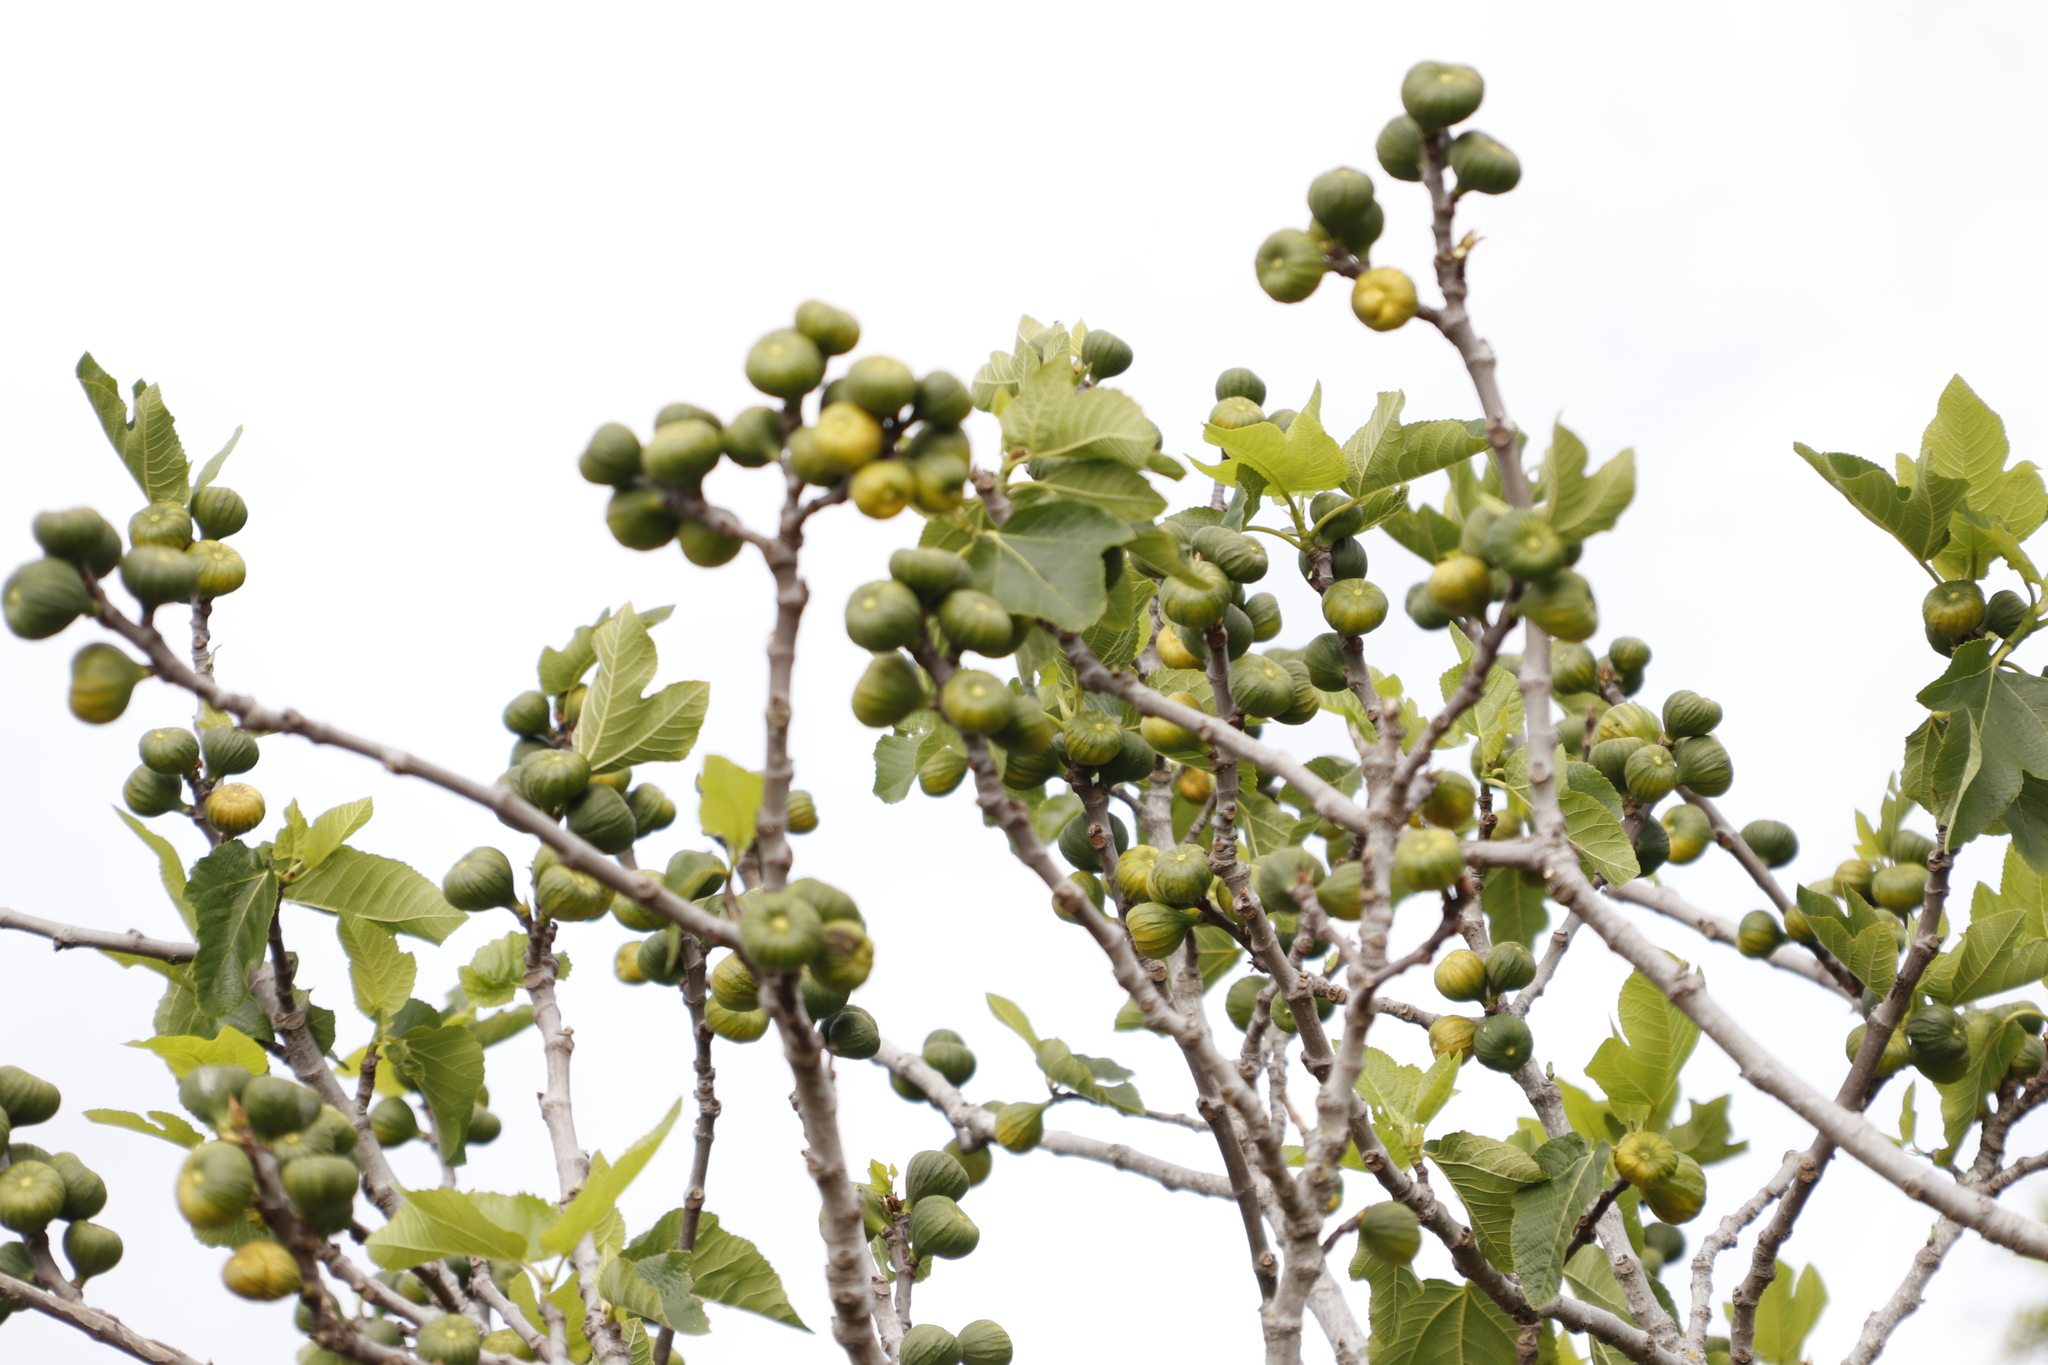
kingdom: Plantae
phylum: Tracheophyta
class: Magnoliopsida
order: Rosales
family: Moraceae
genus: Ficus
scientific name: Ficus carica
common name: Fig
